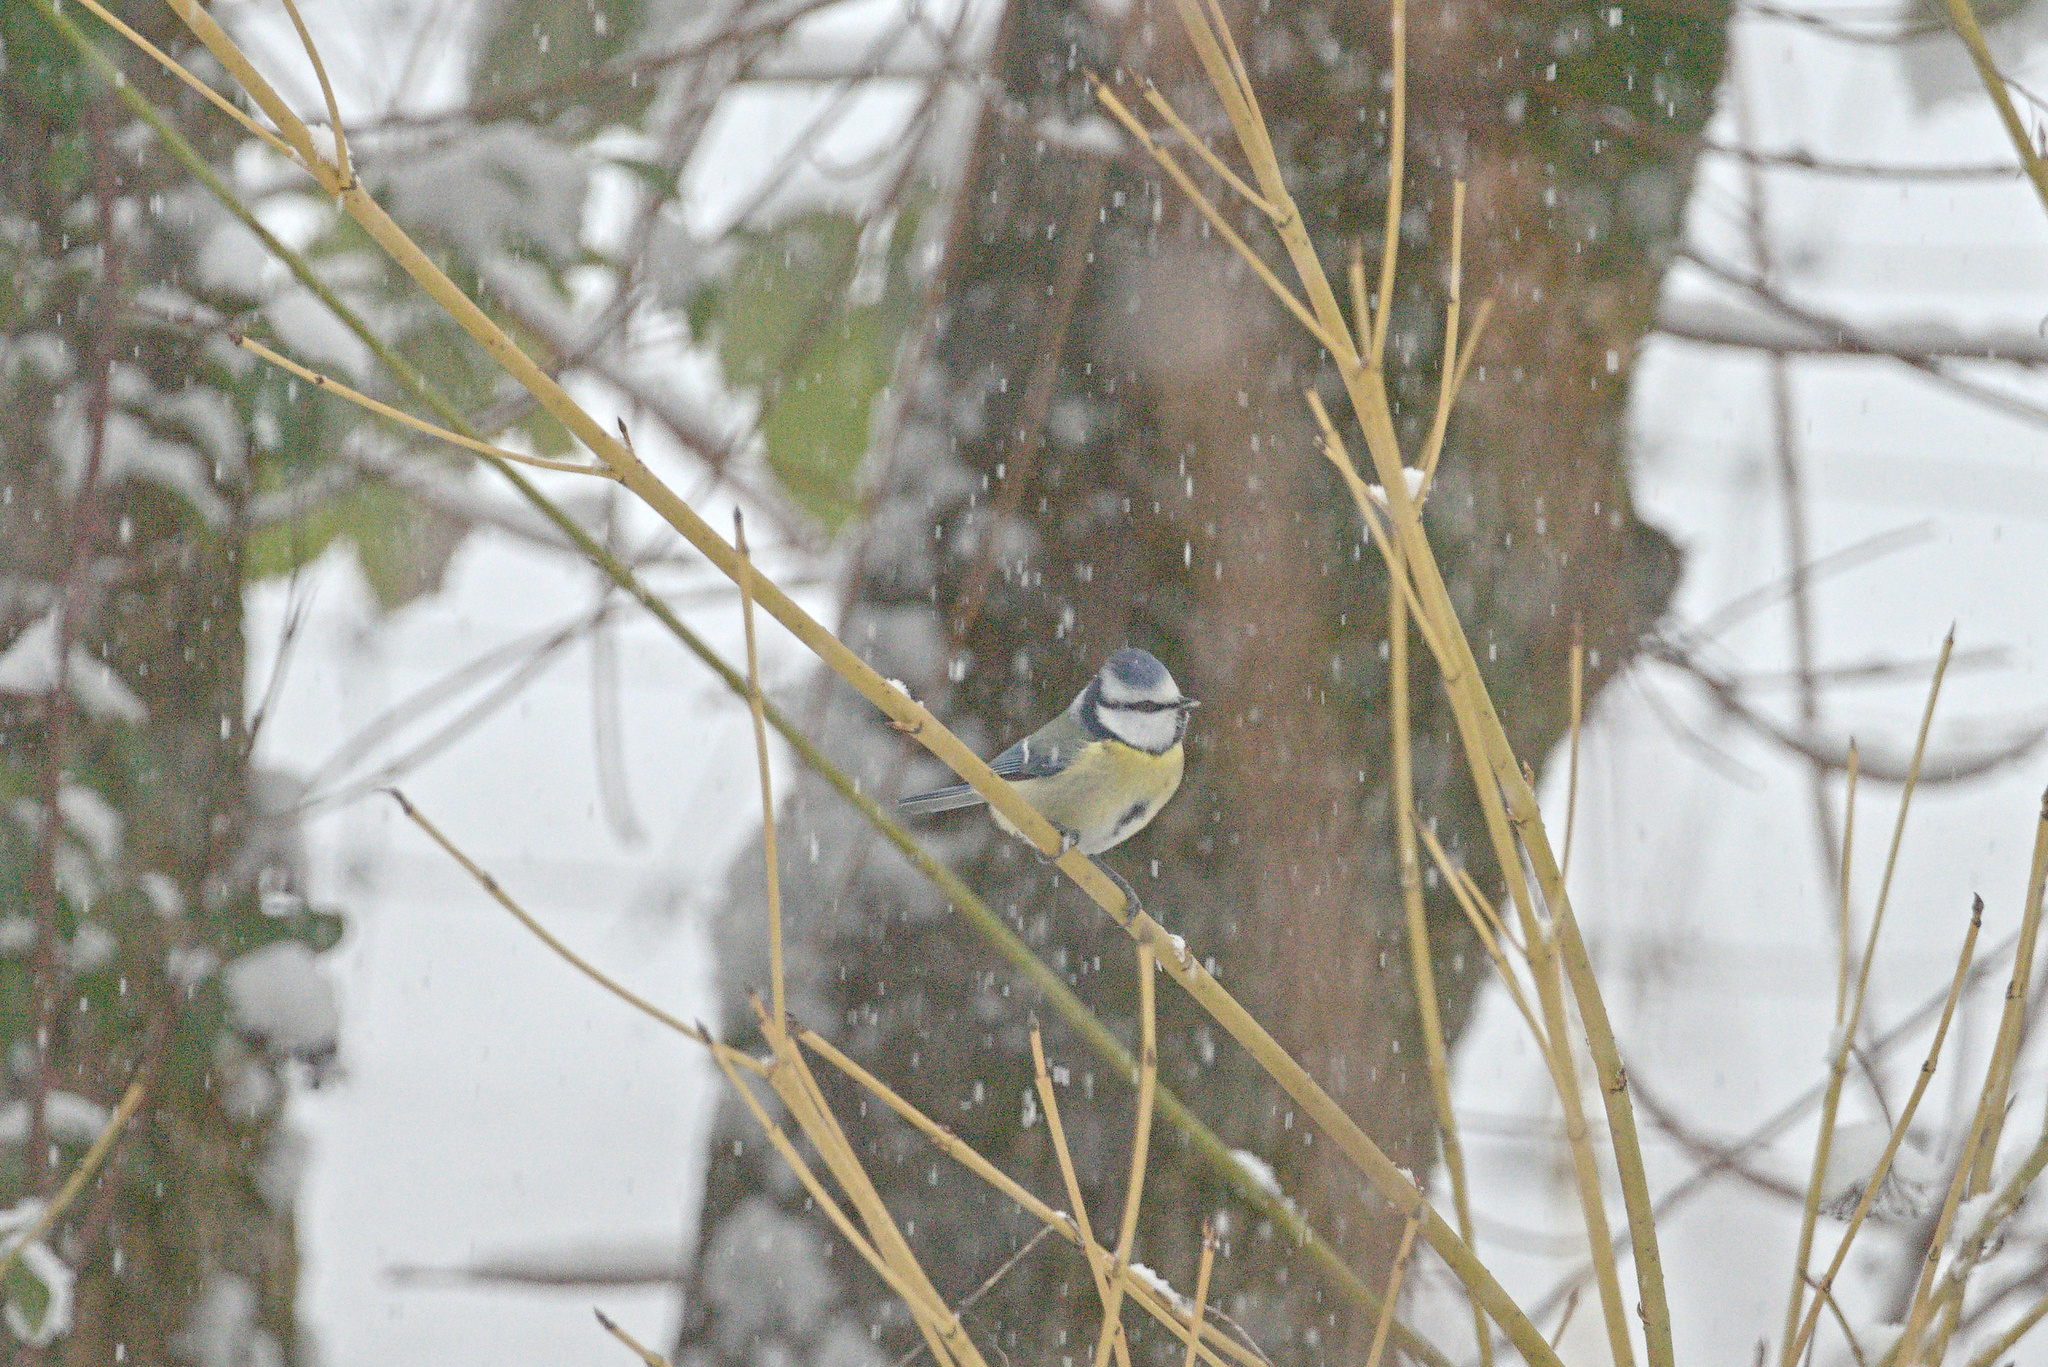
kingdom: Animalia
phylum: Chordata
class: Aves
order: Passeriformes
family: Paridae
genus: Cyanistes
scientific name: Cyanistes caeruleus
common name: Eurasian blue tit
